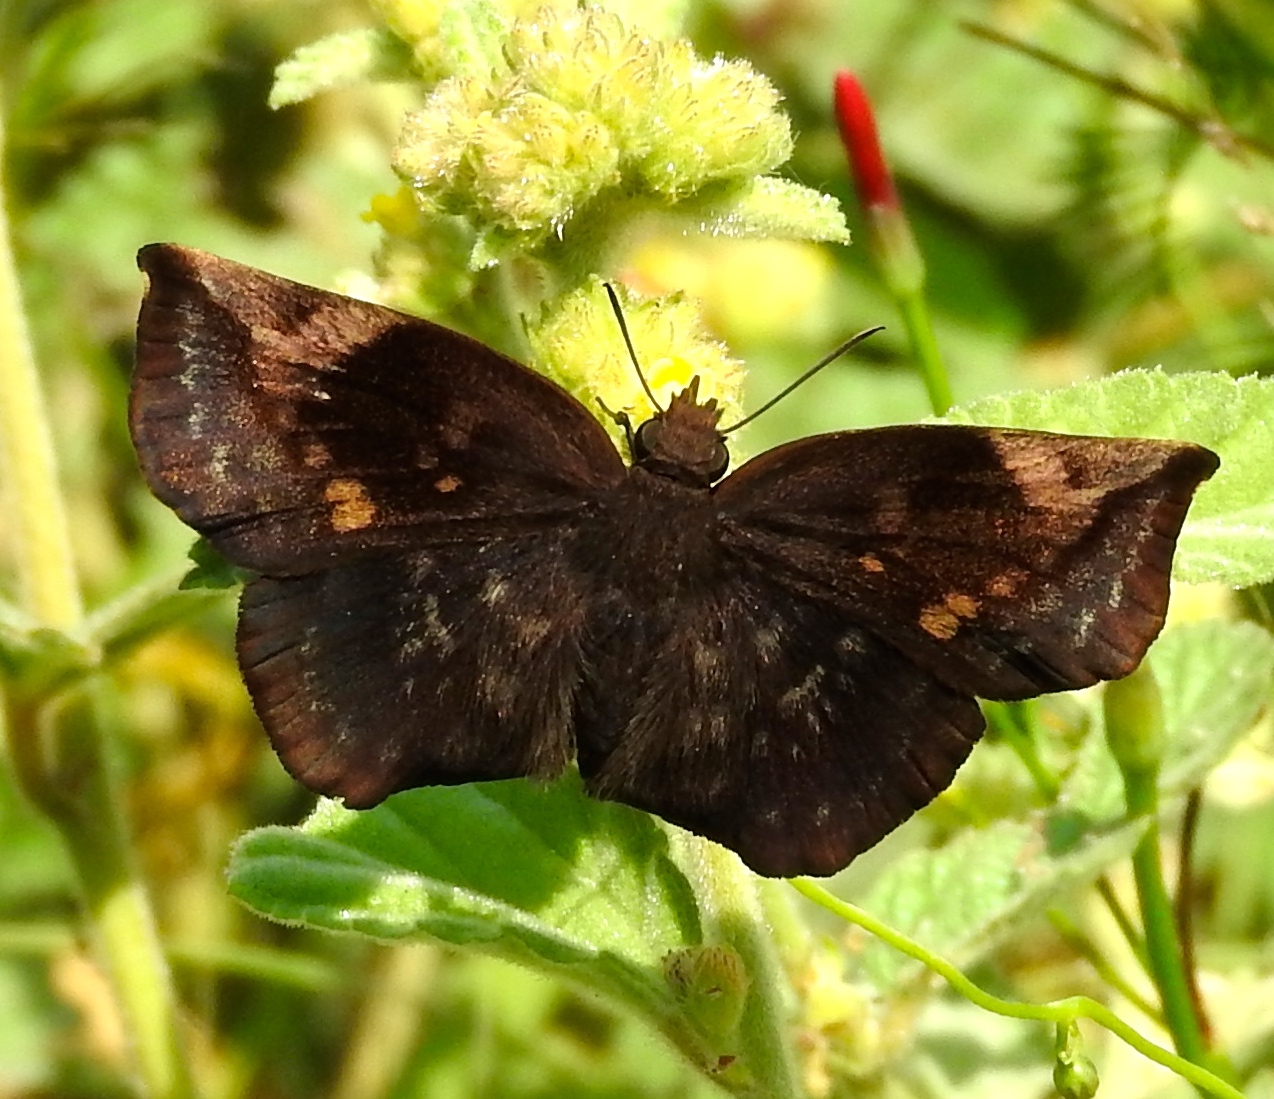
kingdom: Animalia
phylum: Arthropoda
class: Insecta
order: Lepidoptera
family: Hesperiidae
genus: Achlyodes
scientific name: Achlyodes thraso
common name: Sickle-winged skipper
